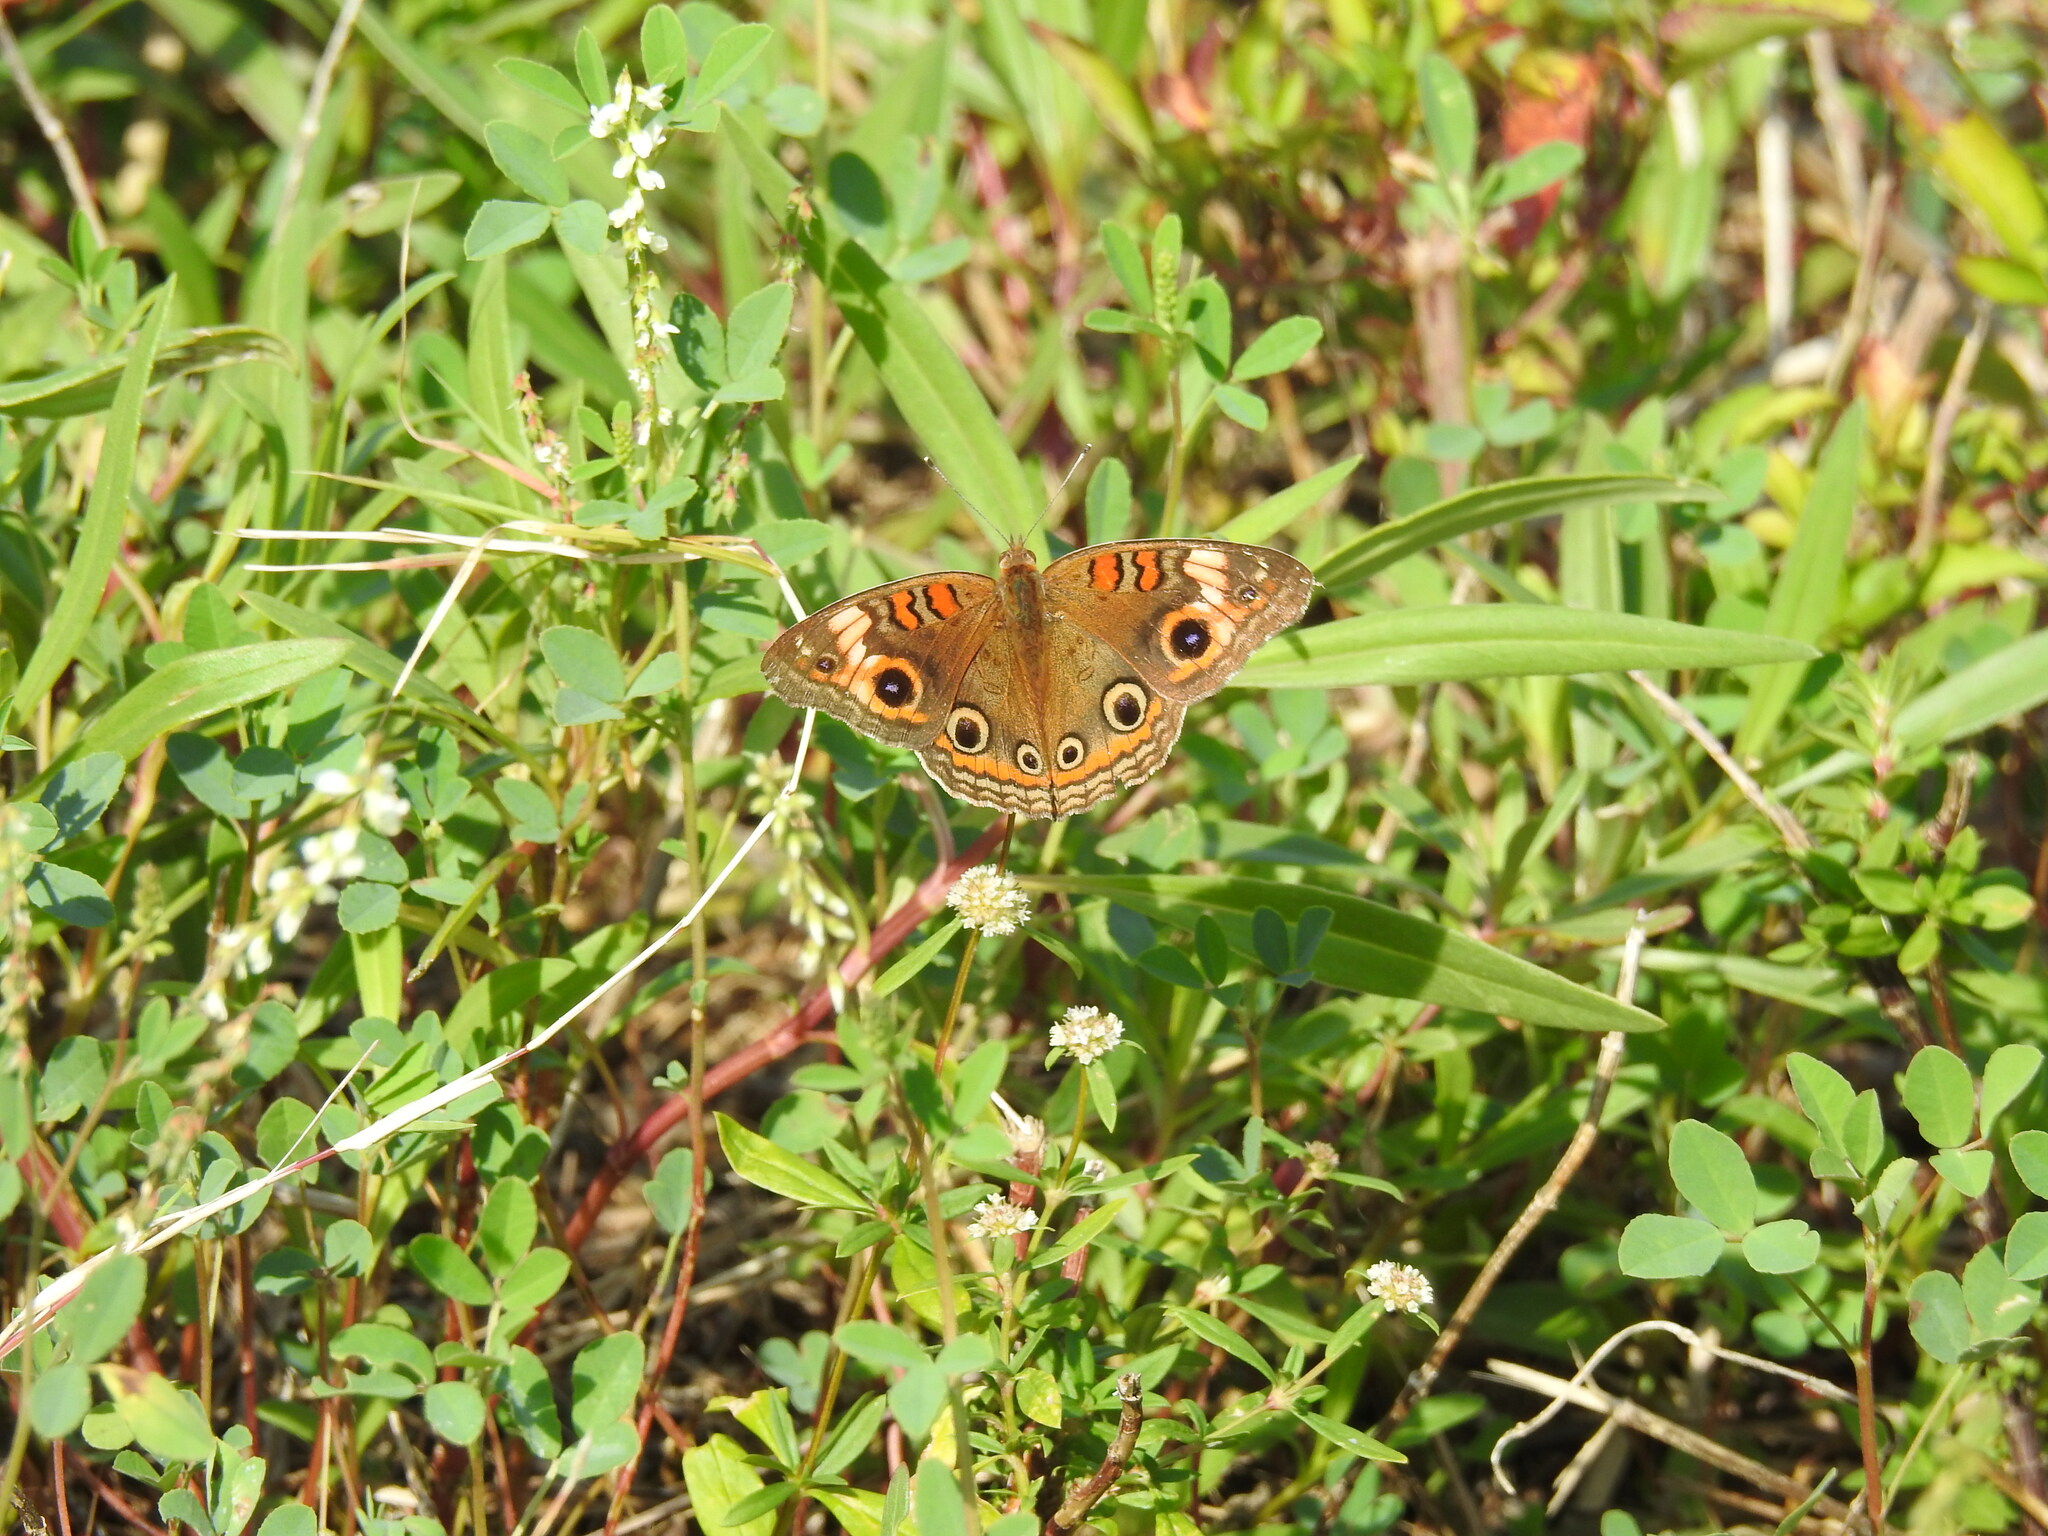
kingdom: Animalia
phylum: Arthropoda
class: Insecta
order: Lepidoptera
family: Nymphalidae
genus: Junonia
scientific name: Junonia neildi
